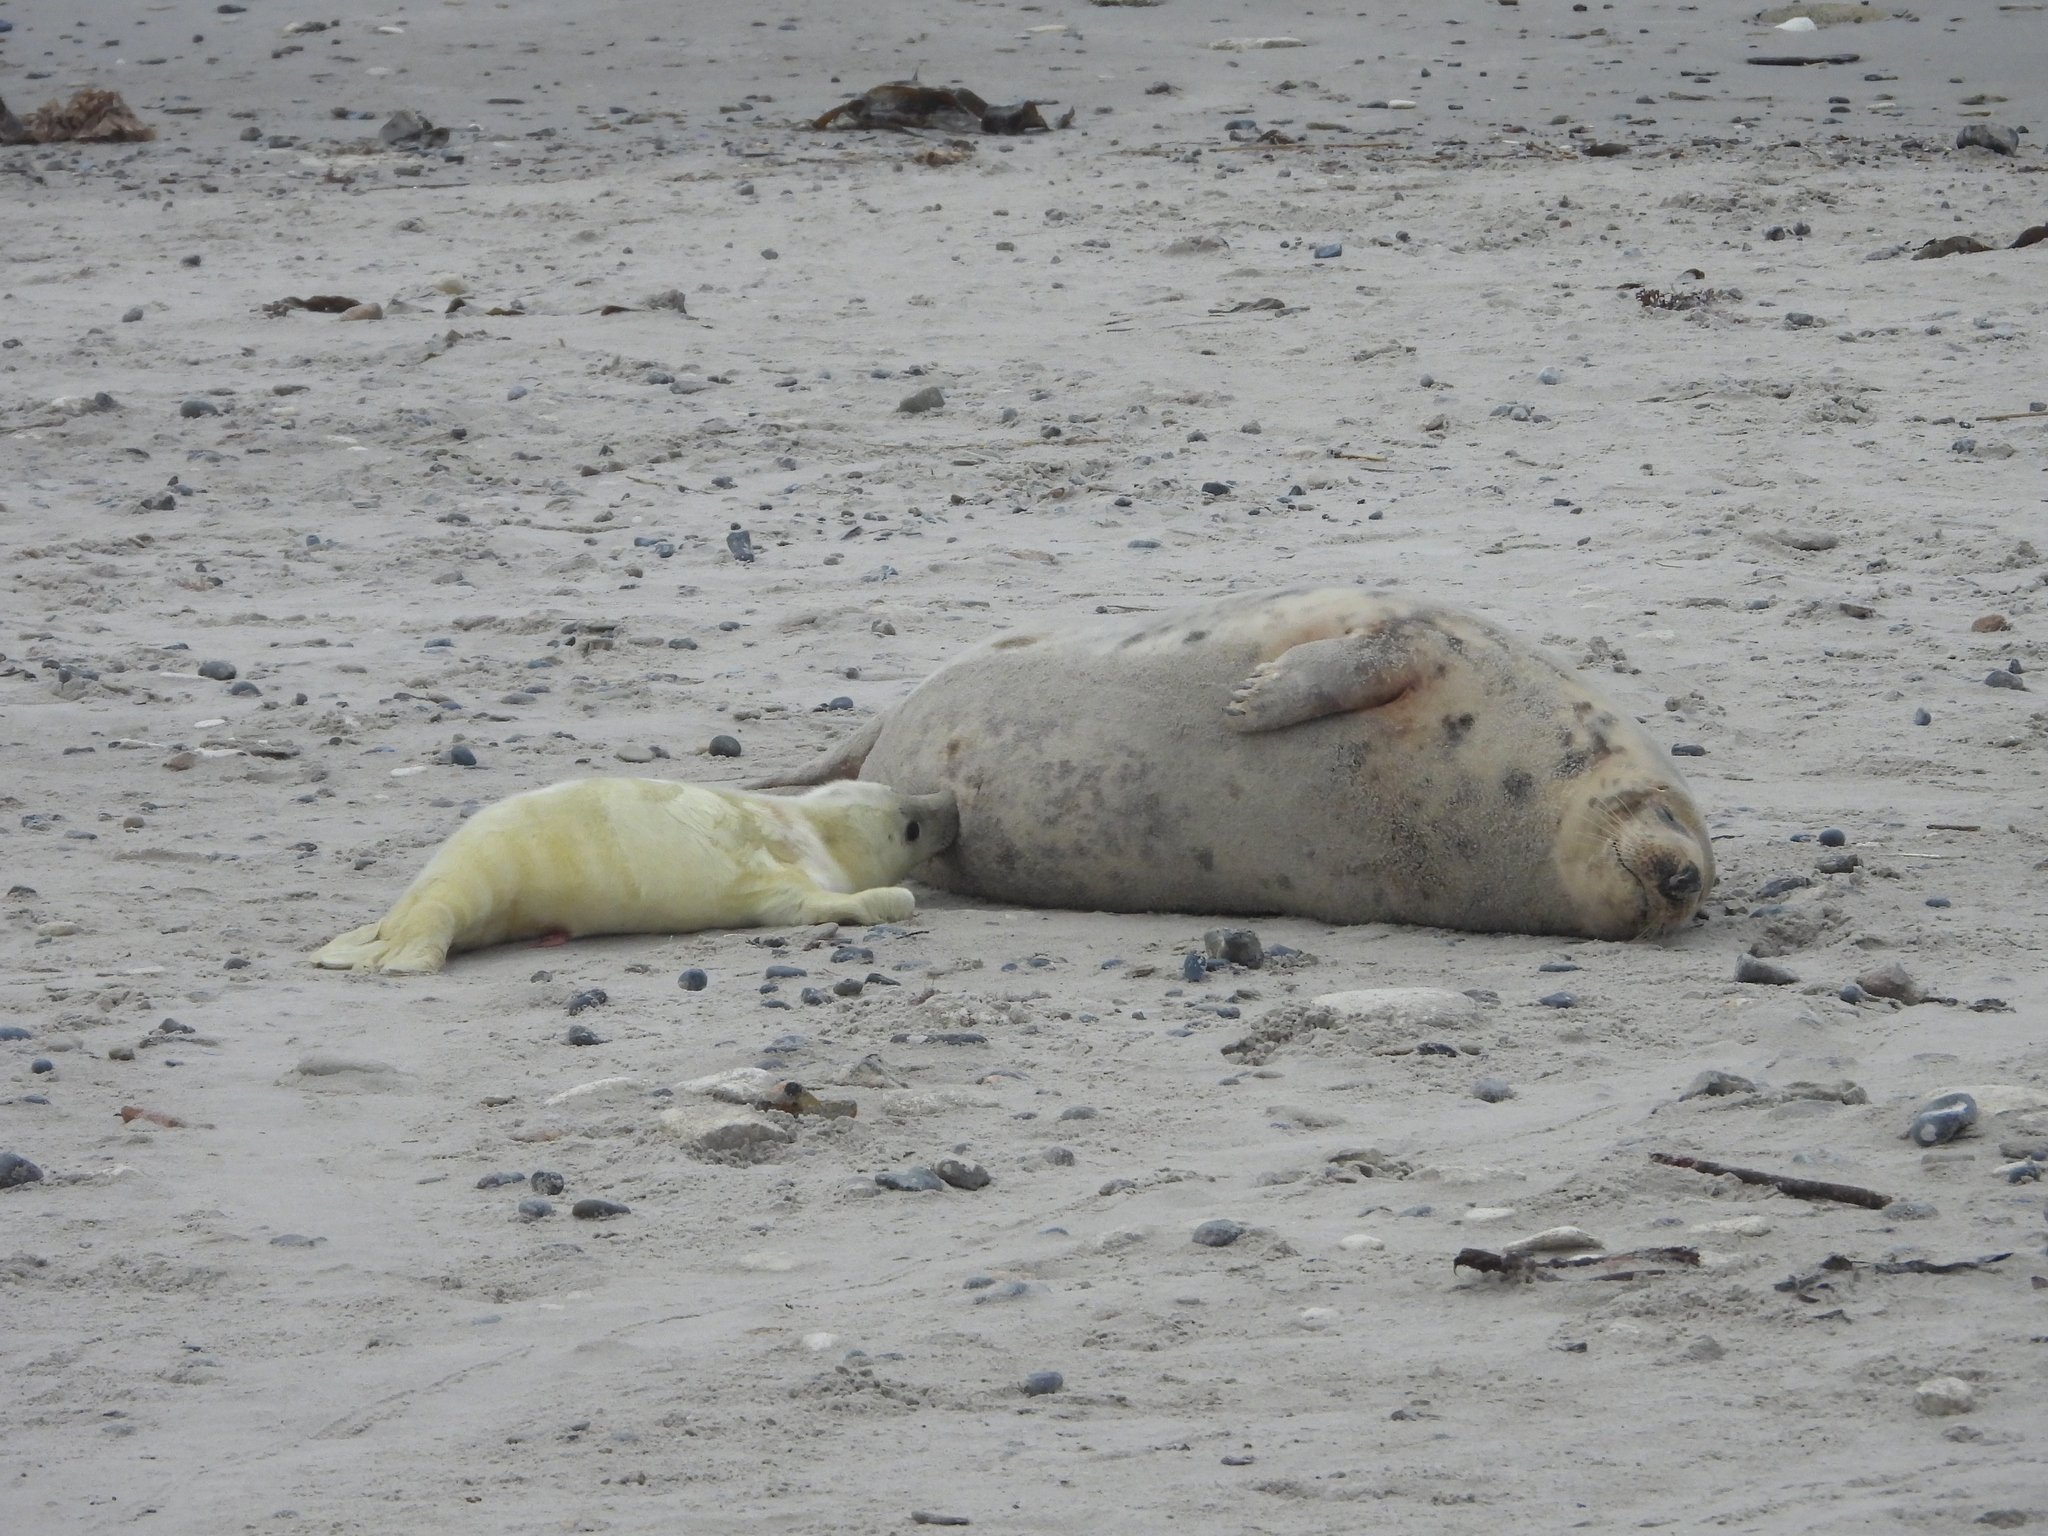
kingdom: Animalia
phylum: Chordata
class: Mammalia
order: Carnivora
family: Phocidae
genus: Halichoerus
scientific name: Halichoerus grypus
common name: Grey seal
